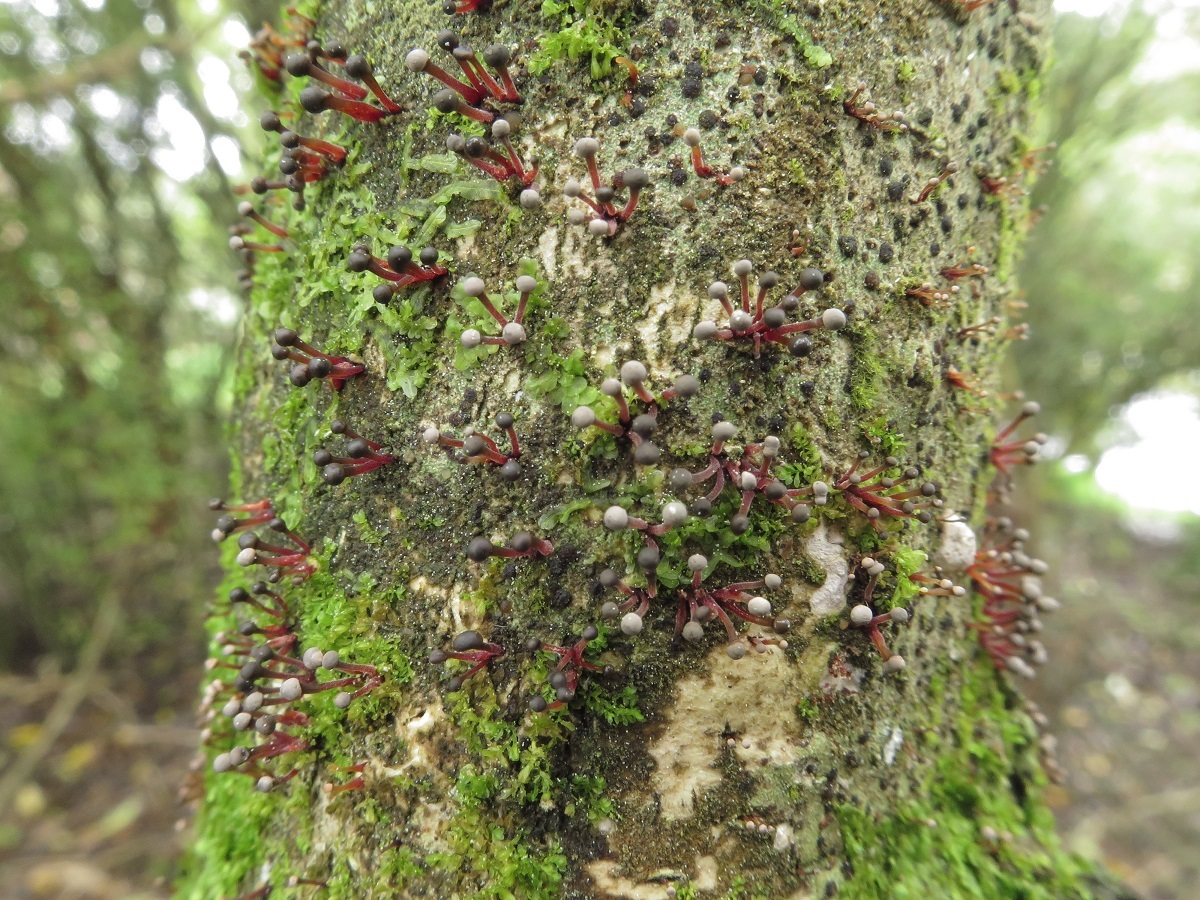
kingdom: Fungi
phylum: Ascomycota
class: Sordariomycetes
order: Hypocreales
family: Nectriaceae
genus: Murinectria
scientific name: Murinectria polythalama
